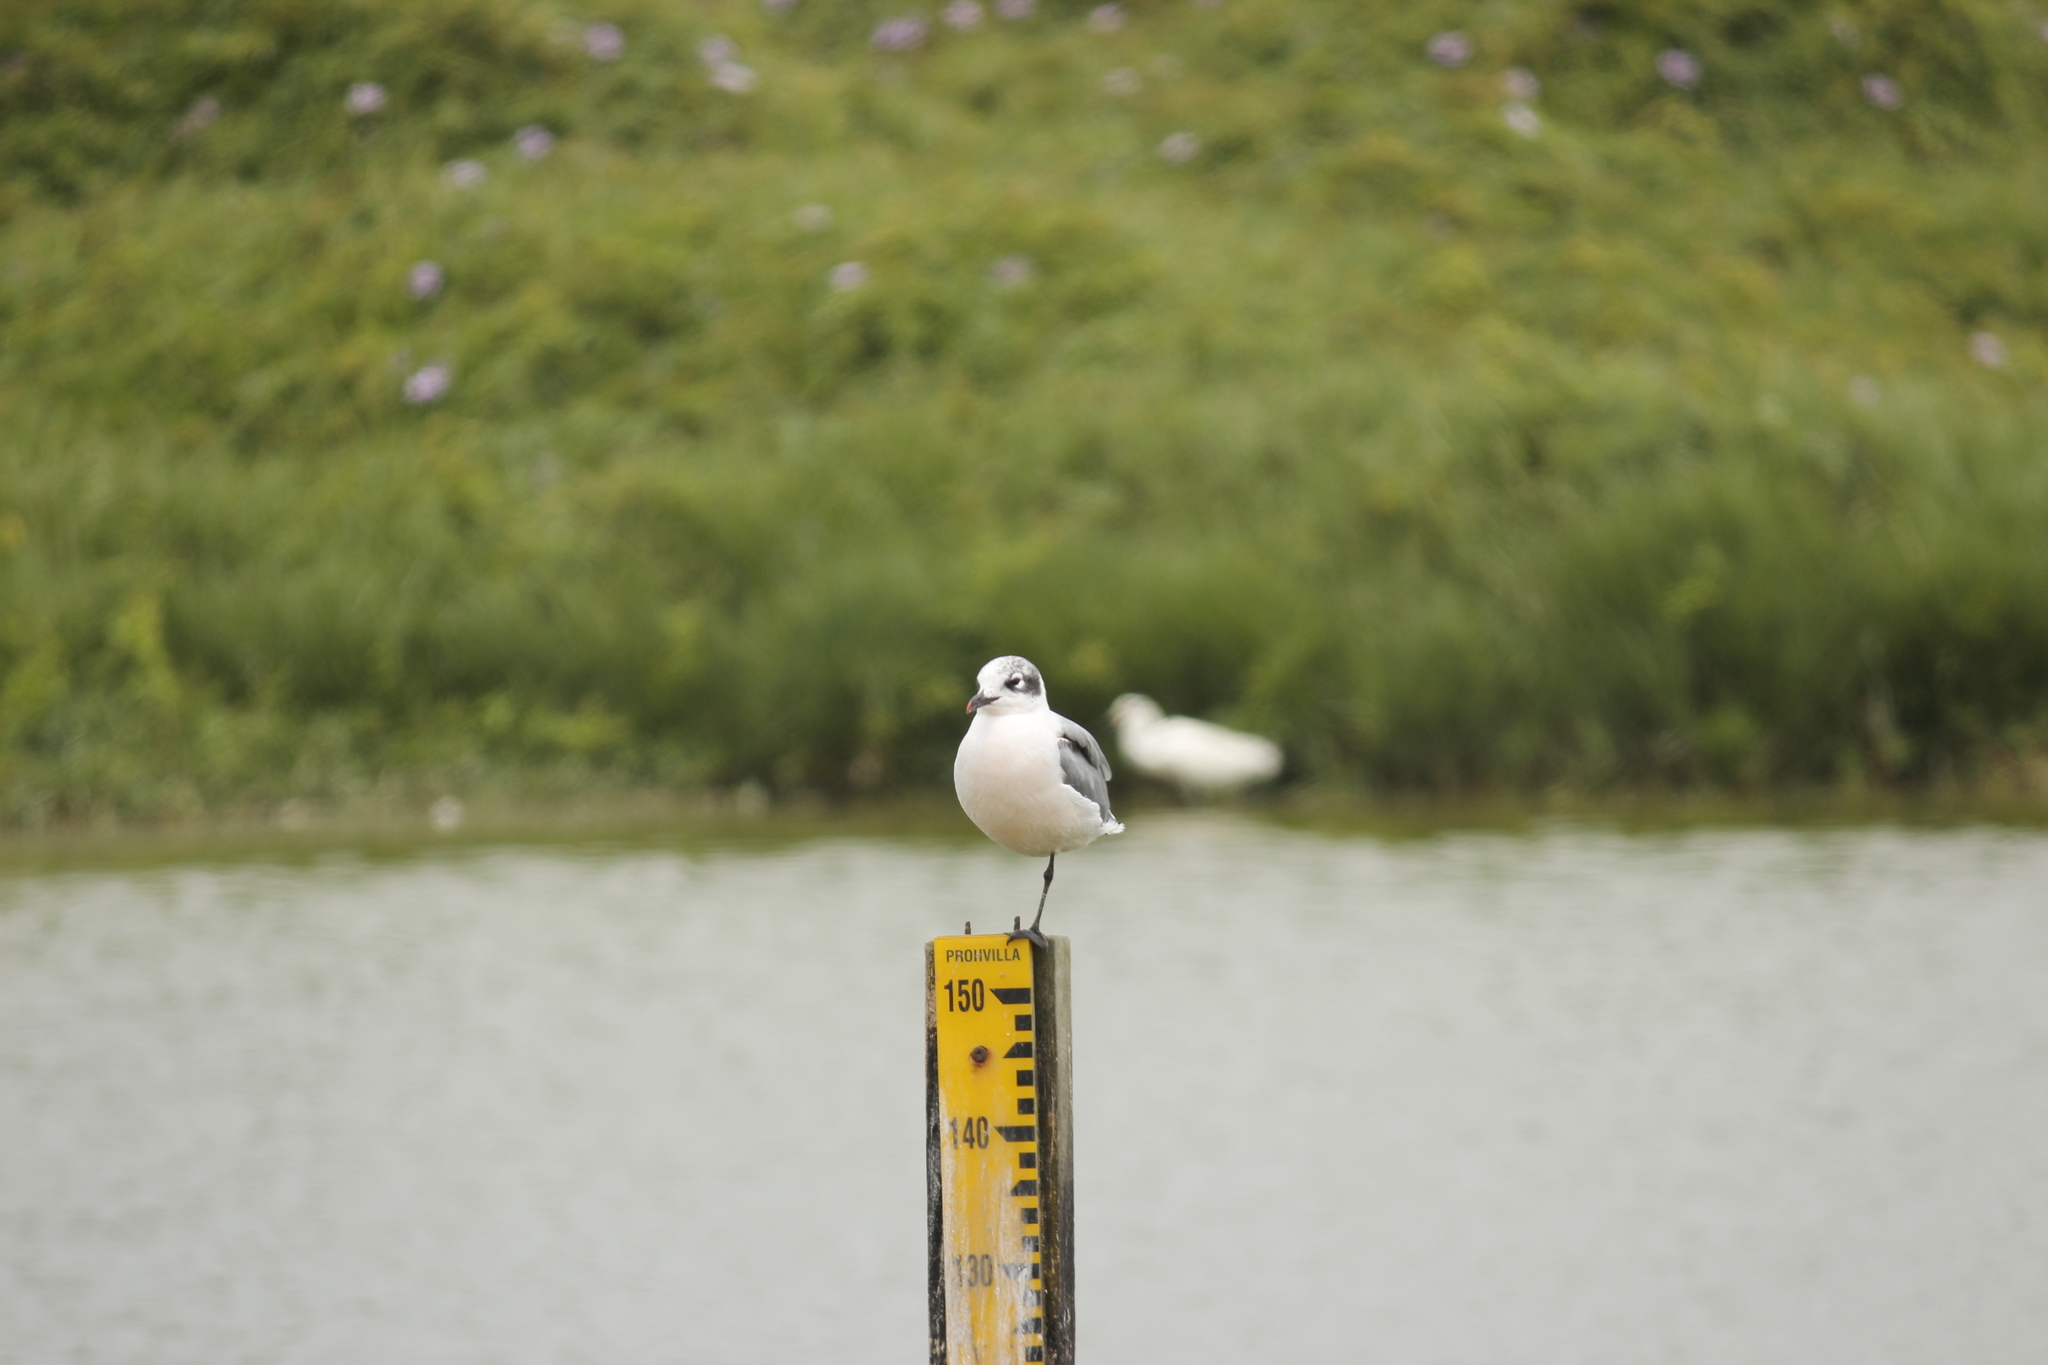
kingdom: Animalia
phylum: Chordata
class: Aves
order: Charadriiformes
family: Laridae
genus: Leucophaeus
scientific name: Leucophaeus pipixcan
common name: Franklin's gull
